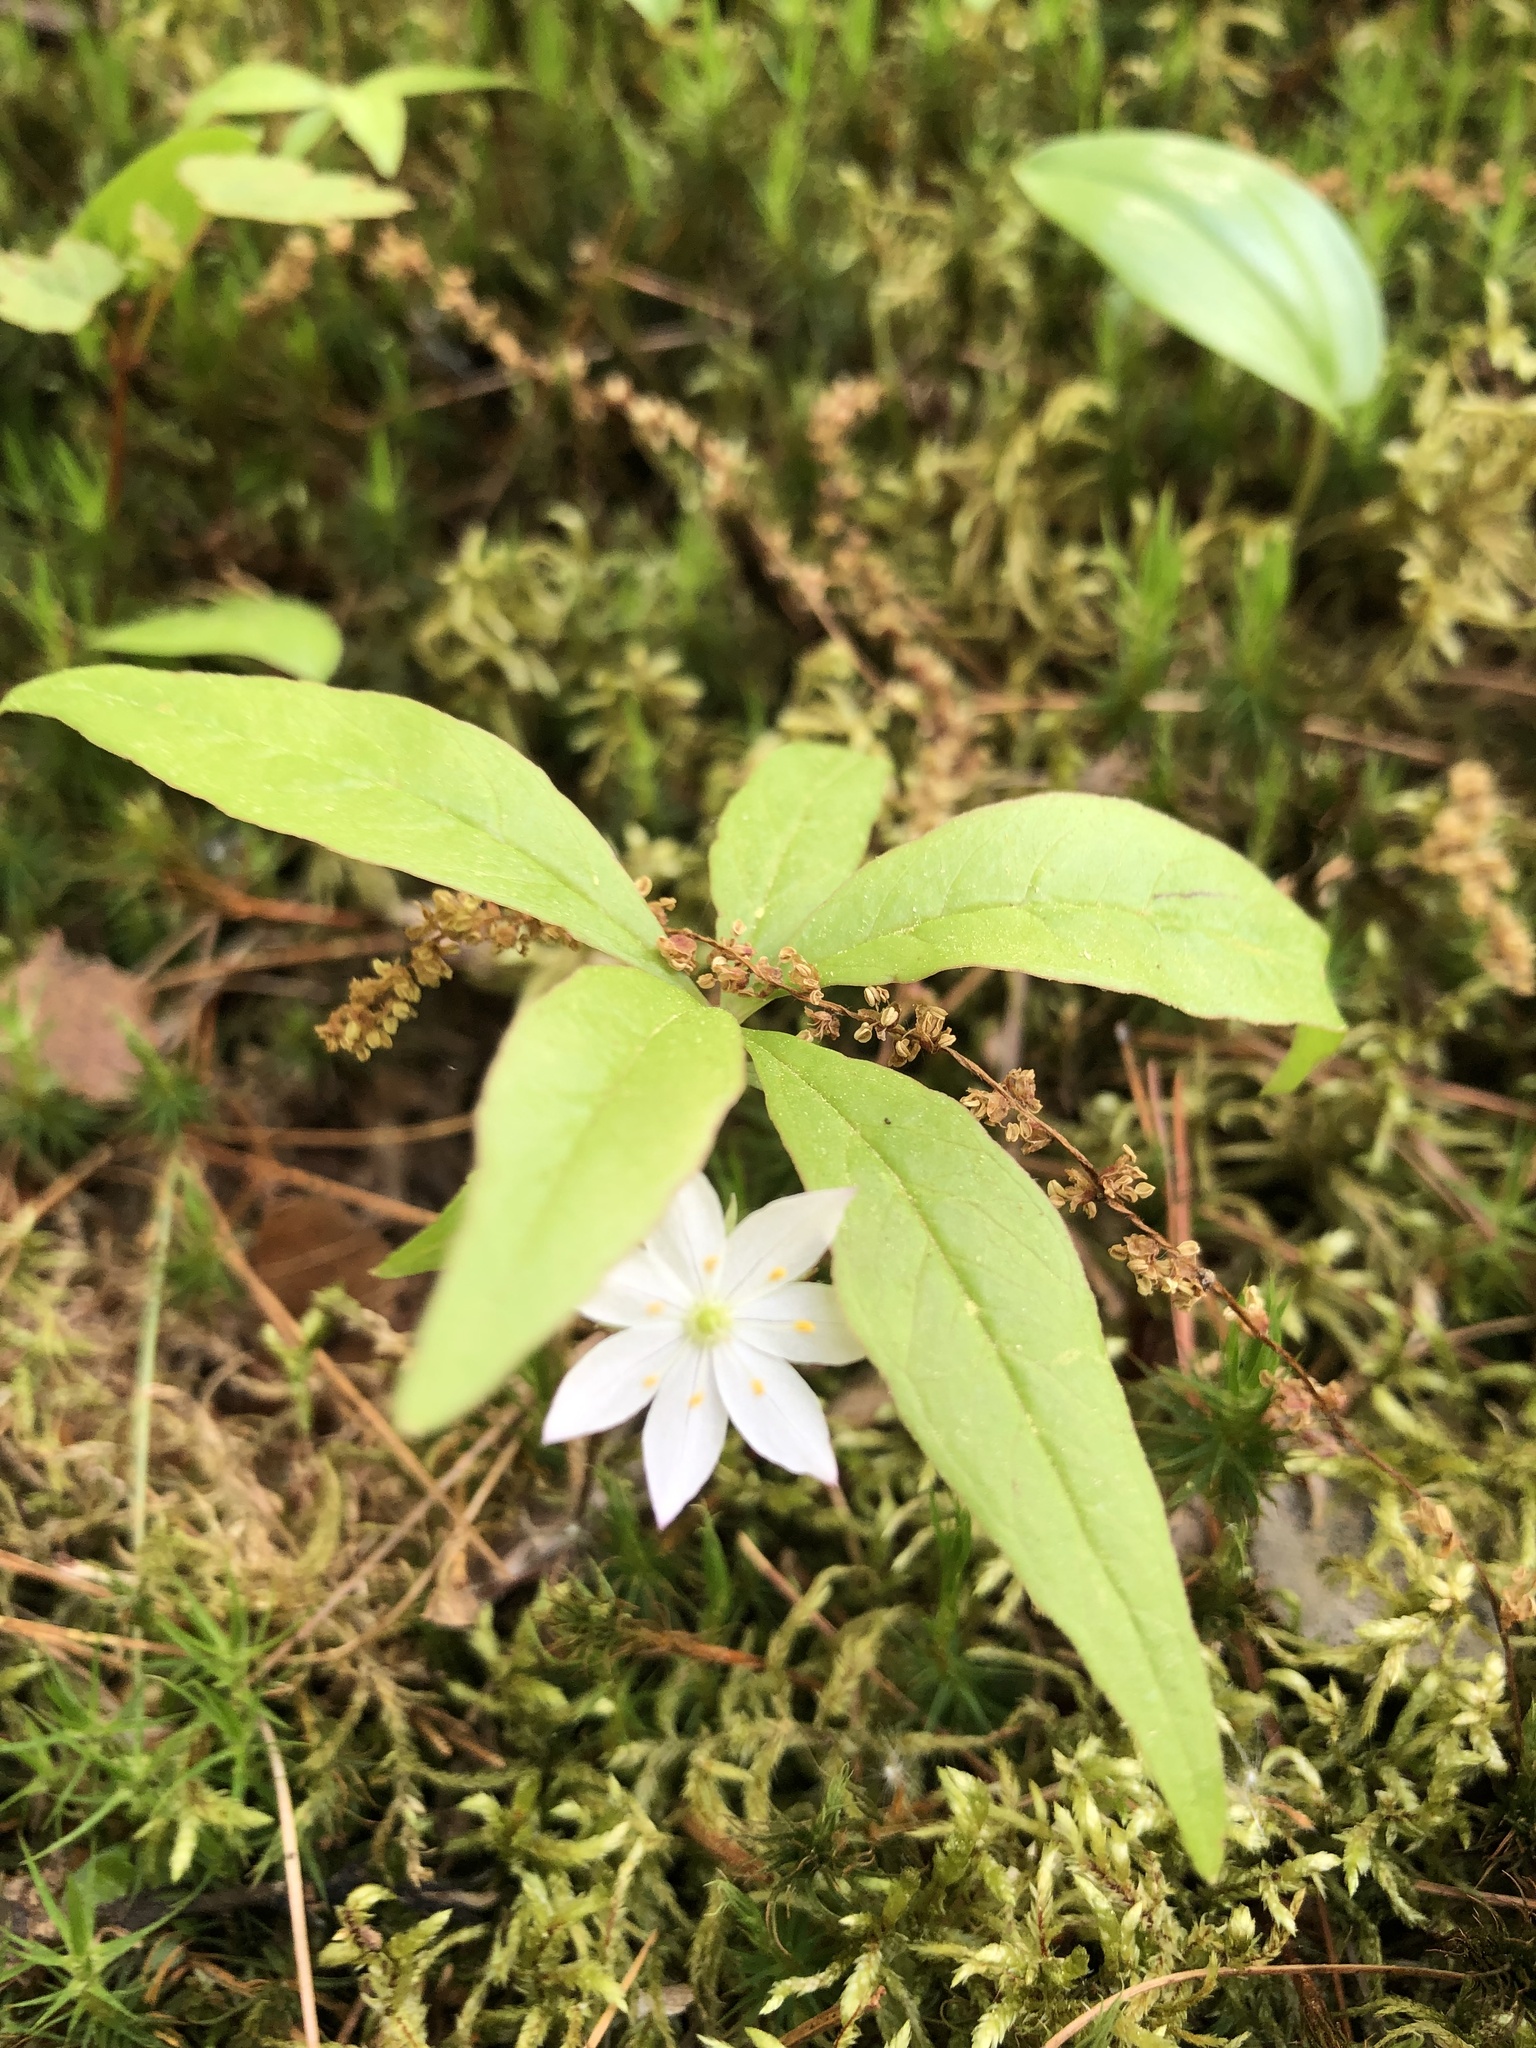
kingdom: Plantae
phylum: Tracheophyta
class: Magnoliopsida
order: Ericales
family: Primulaceae
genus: Lysimachia
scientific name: Lysimachia borealis
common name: American starflower
